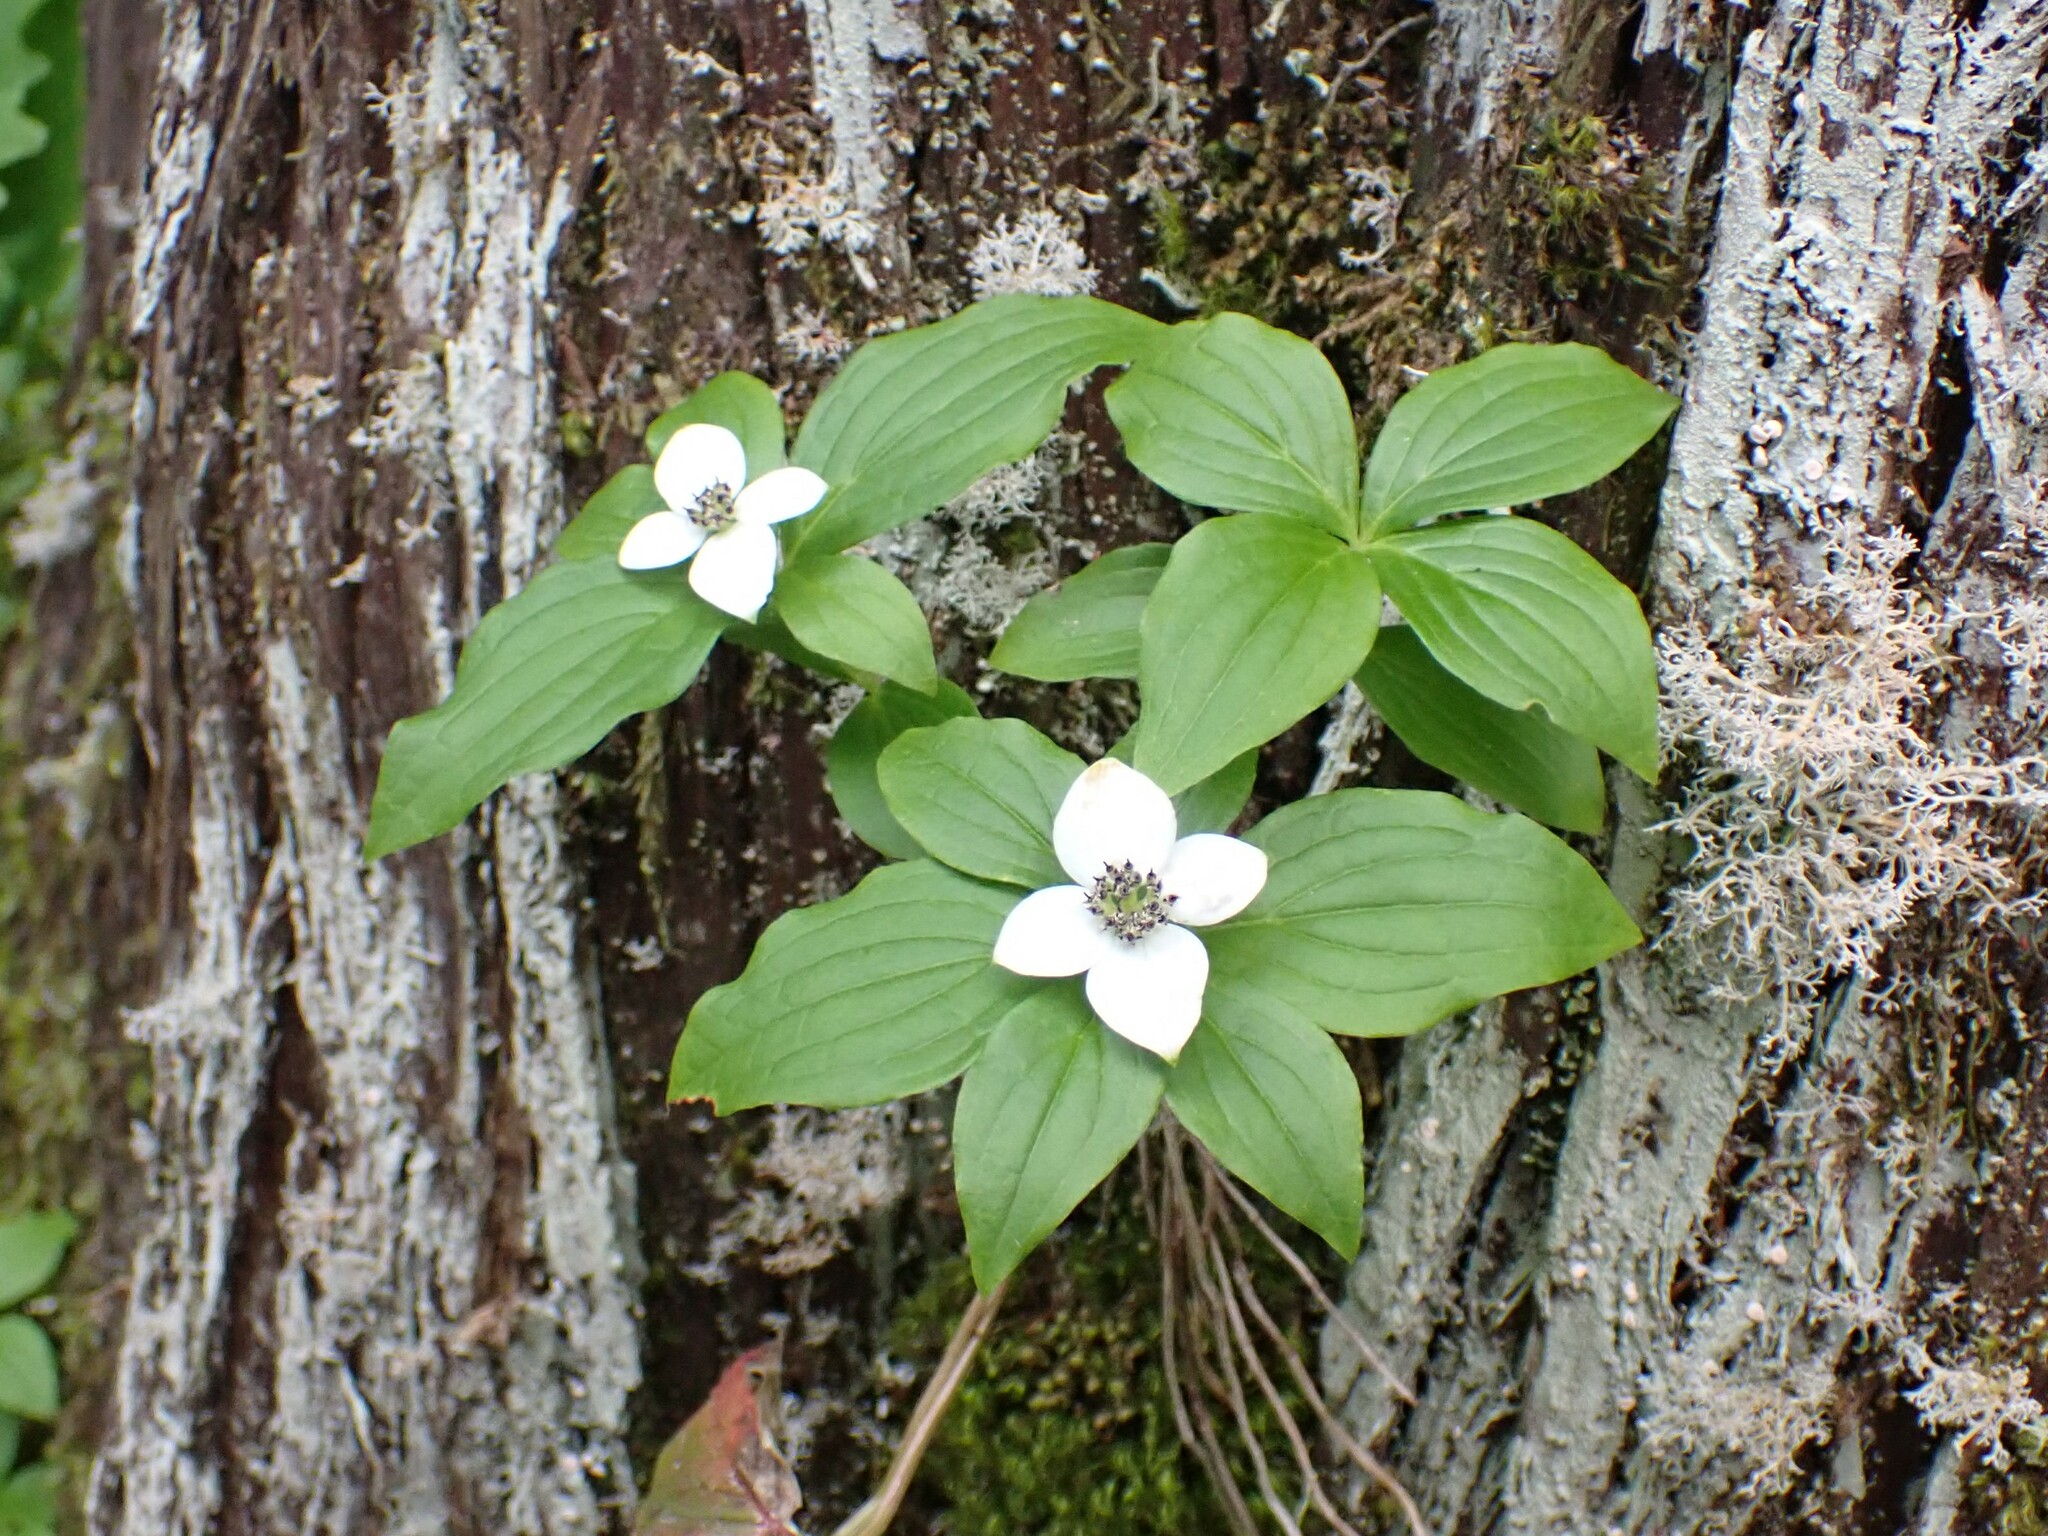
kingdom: Plantae
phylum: Tracheophyta
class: Magnoliopsida
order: Cornales
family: Cornaceae
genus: Cornus
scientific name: Cornus unalaschkensis
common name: Alaska bunchberry
